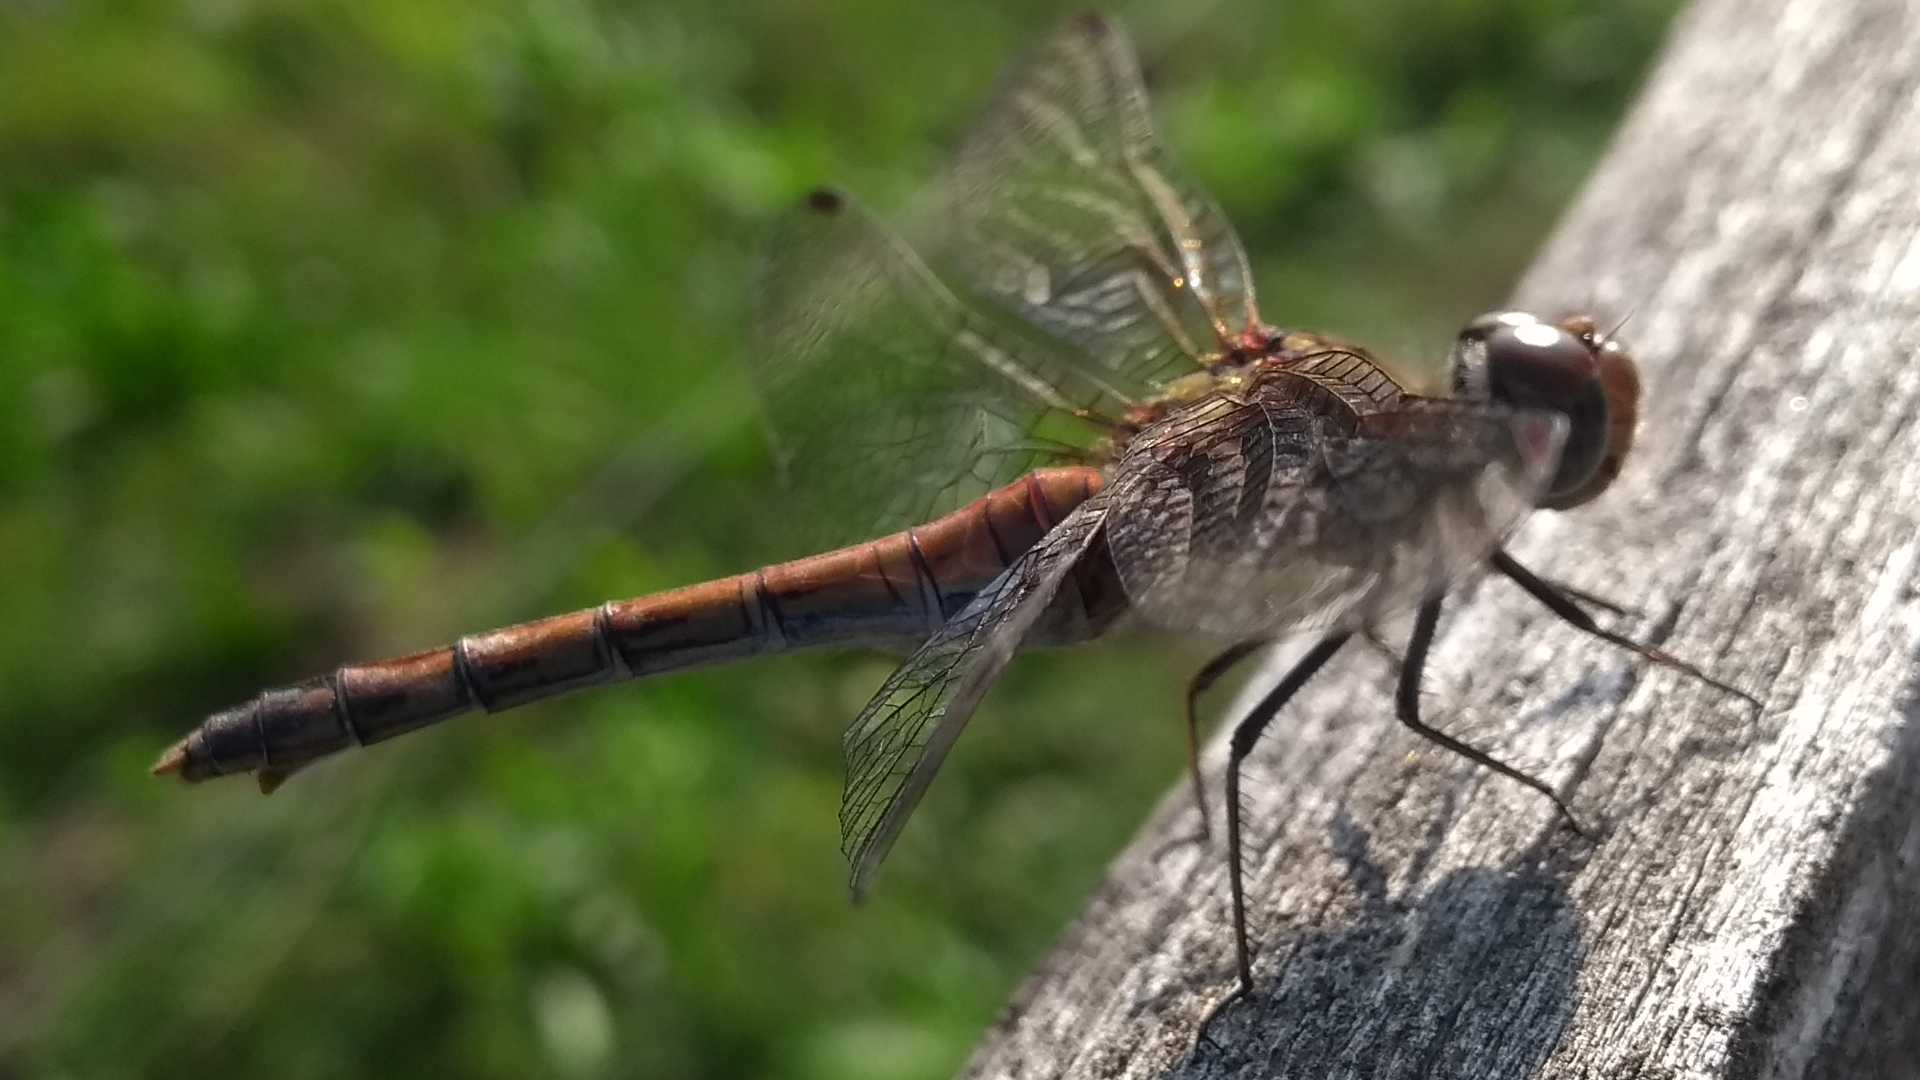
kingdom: Animalia
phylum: Arthropoda
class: Insecta
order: Odonata
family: Libellulidae
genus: Sympetrum
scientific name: Sympetrum striolatum
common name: Common darter
